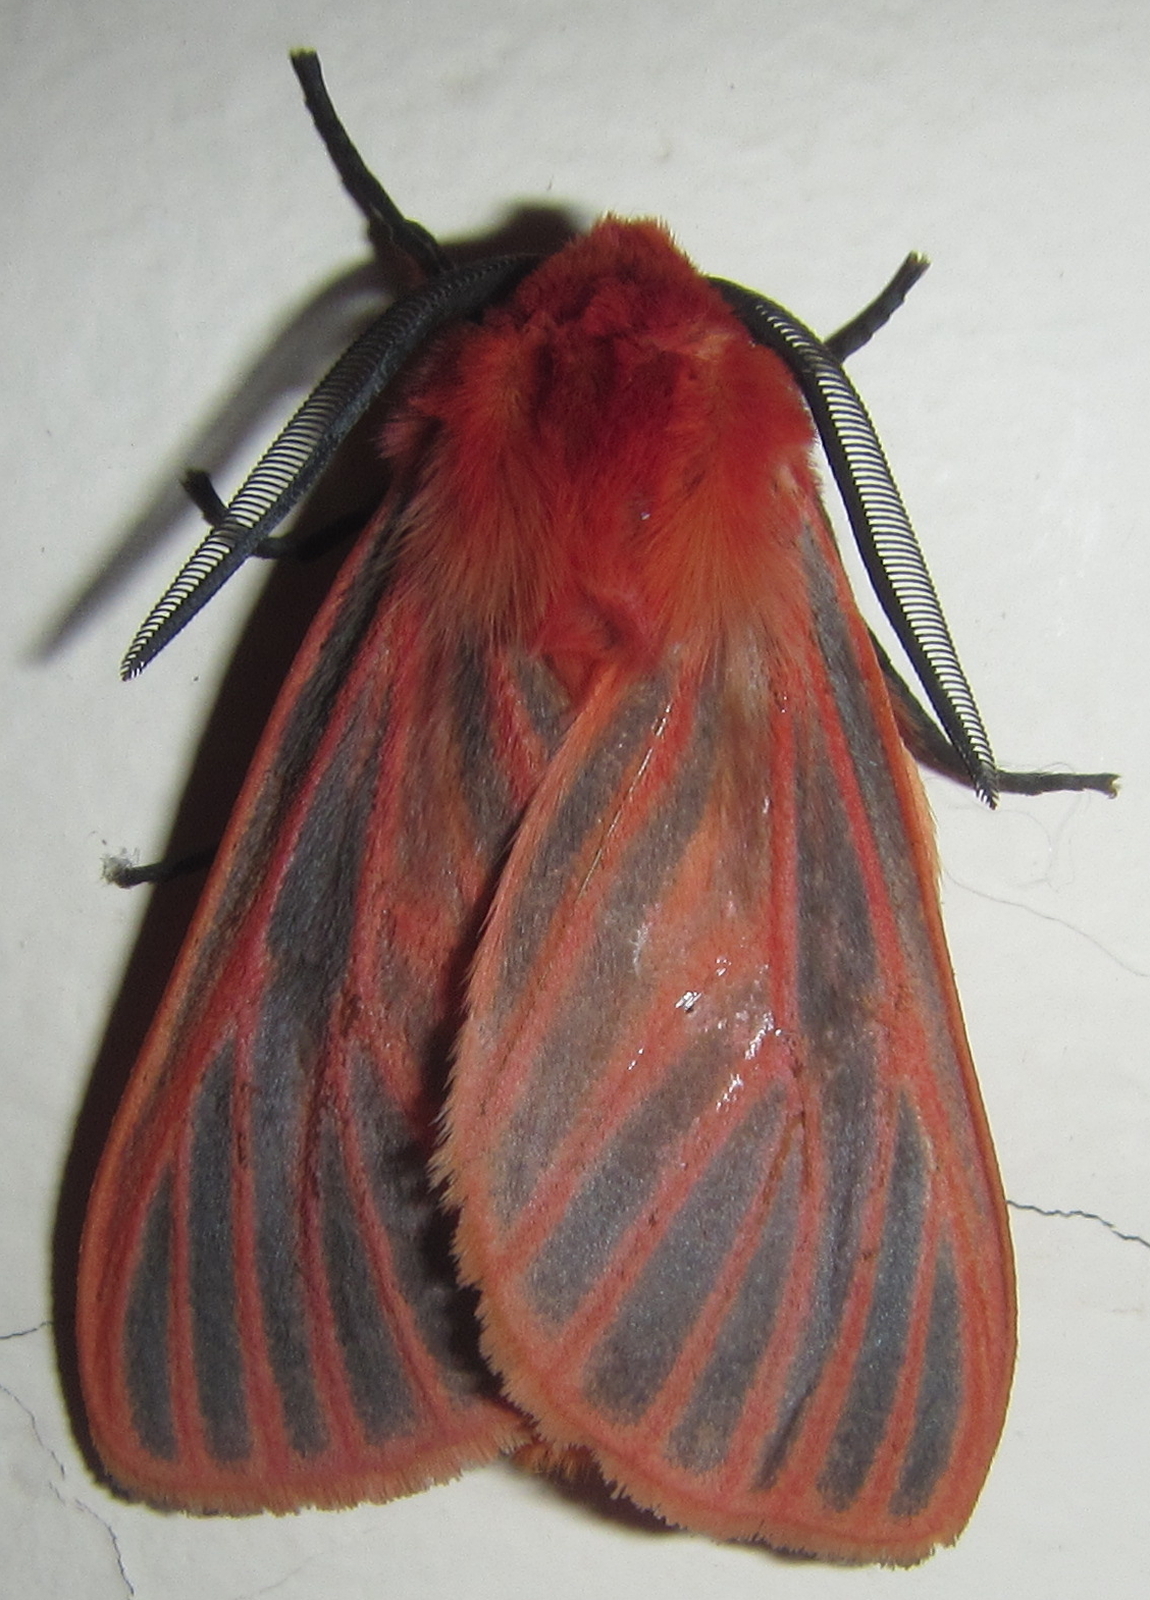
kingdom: Animalia
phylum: Arthropoda
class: Insecta
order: Lepidoptera
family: Erebidae
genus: Automolis
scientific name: Automolis lateritia
